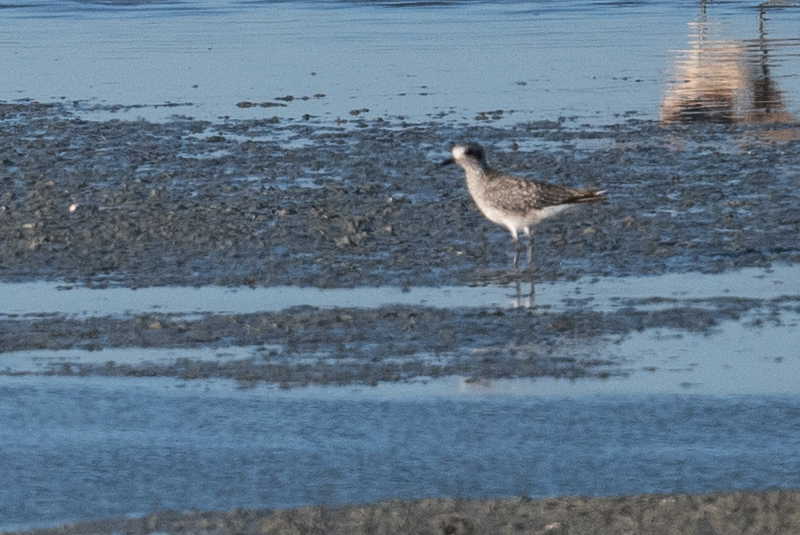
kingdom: Animalia
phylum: Chordata
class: Aves
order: Charadriiformes
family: Charadriidae
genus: Pluvialis
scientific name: Pluvialis squatarola
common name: Grey plover
